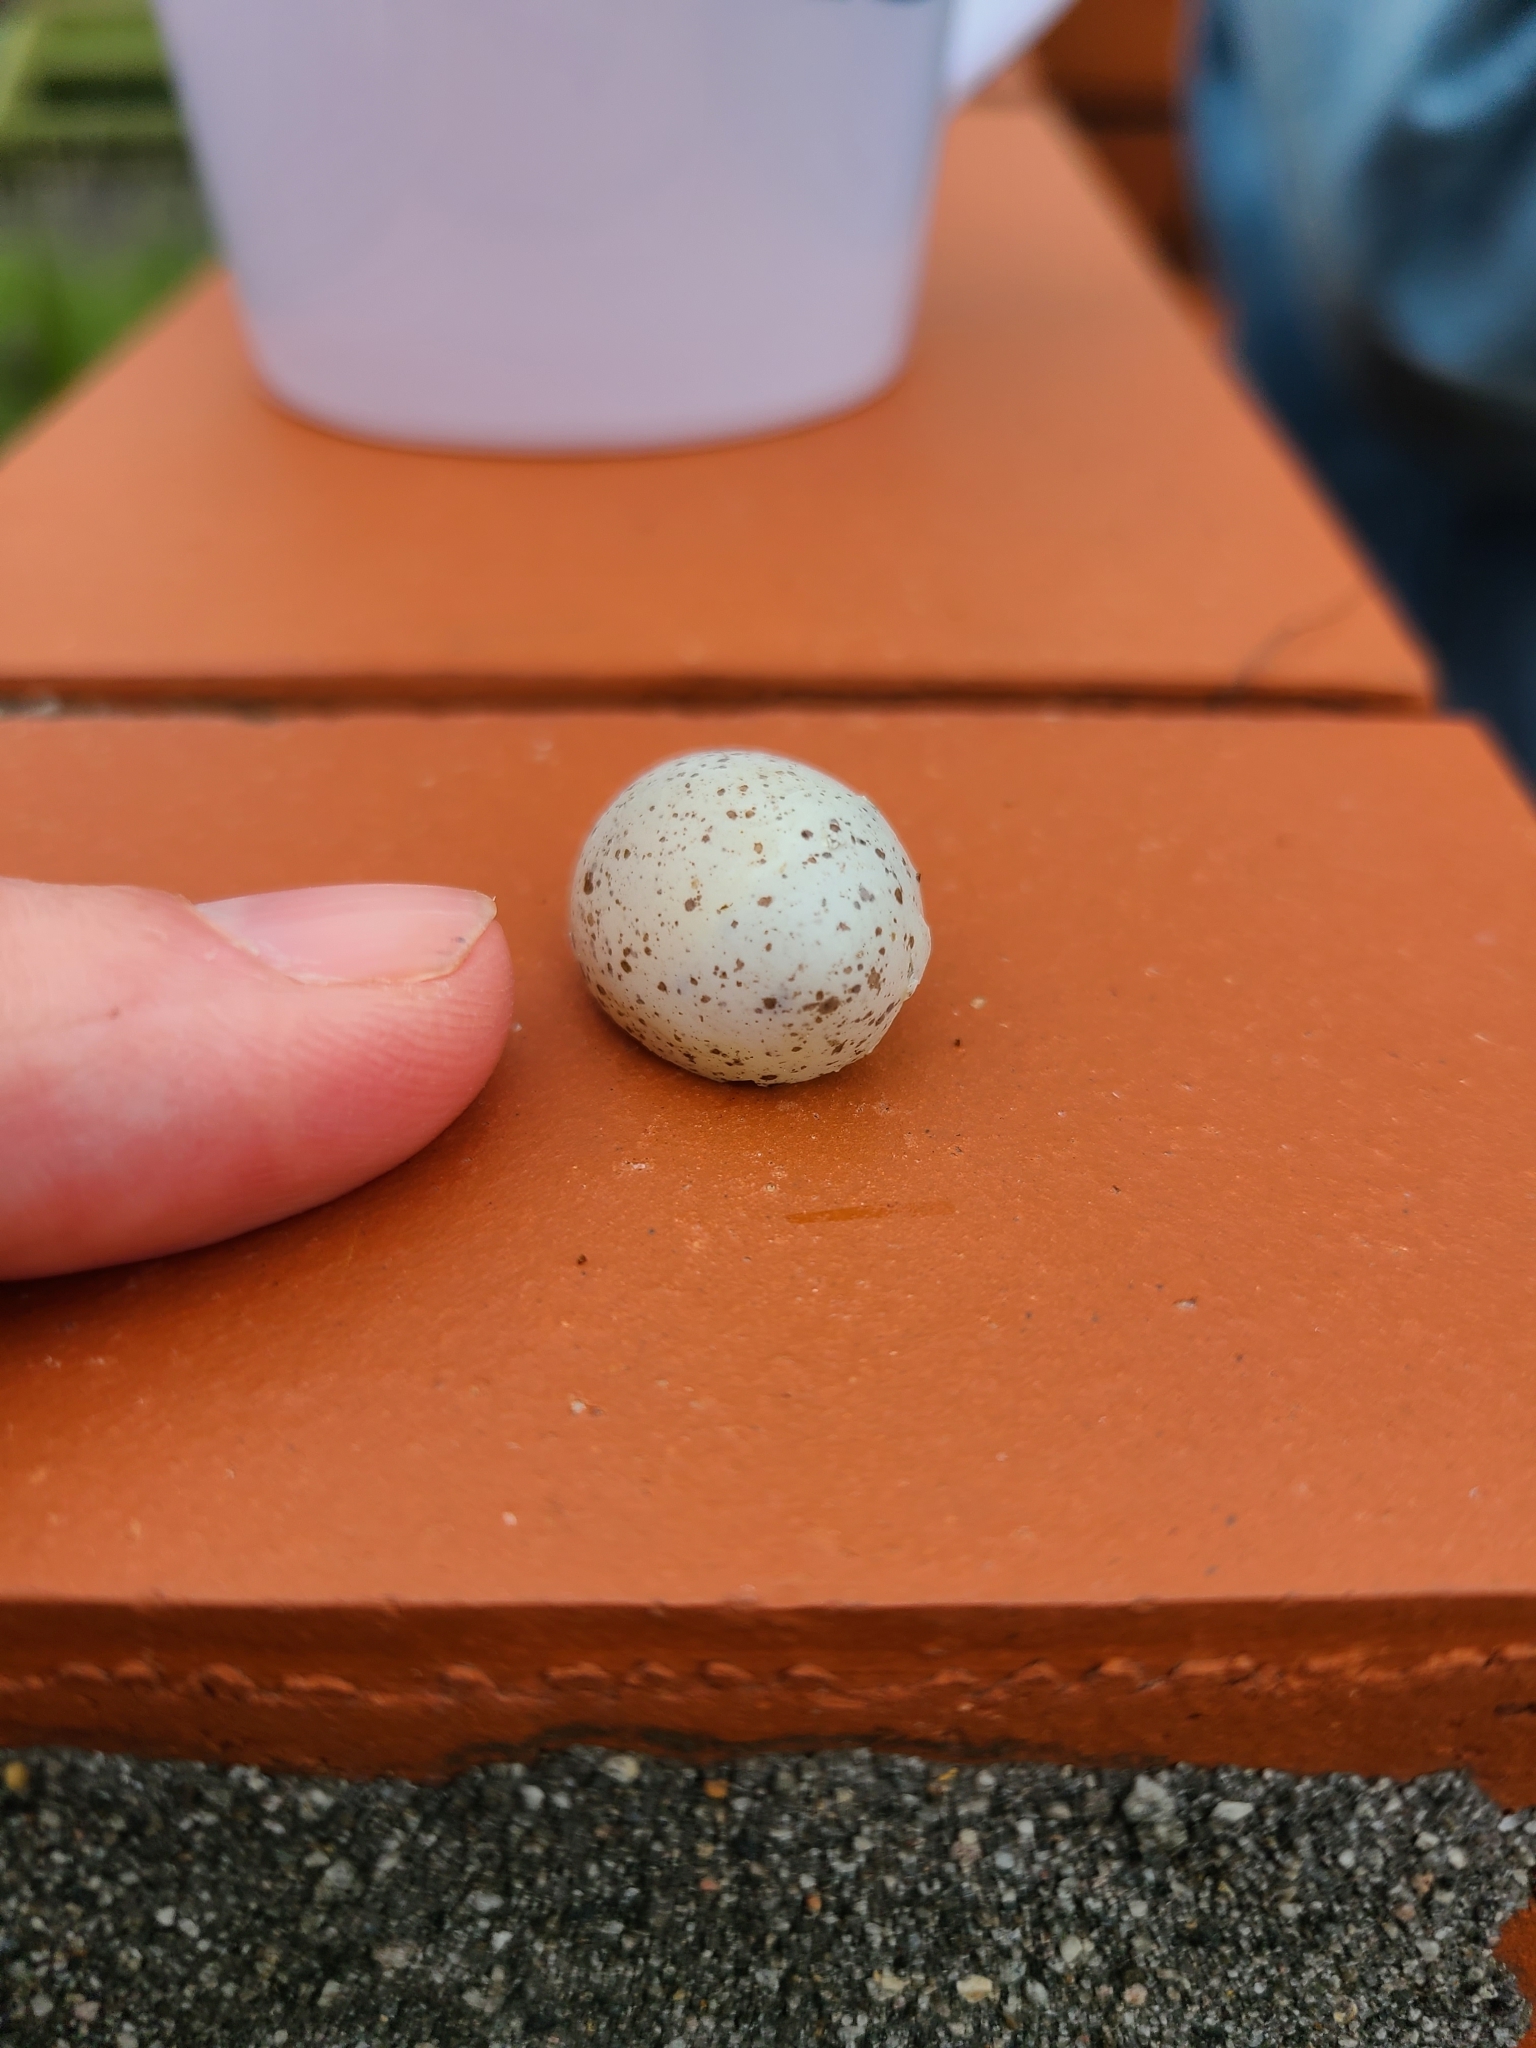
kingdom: Animalia
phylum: Chordata
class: Aves
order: Passeriformes
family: Acanthizidae
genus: Gerygone
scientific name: Gerygone igata
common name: Grey gerygone
